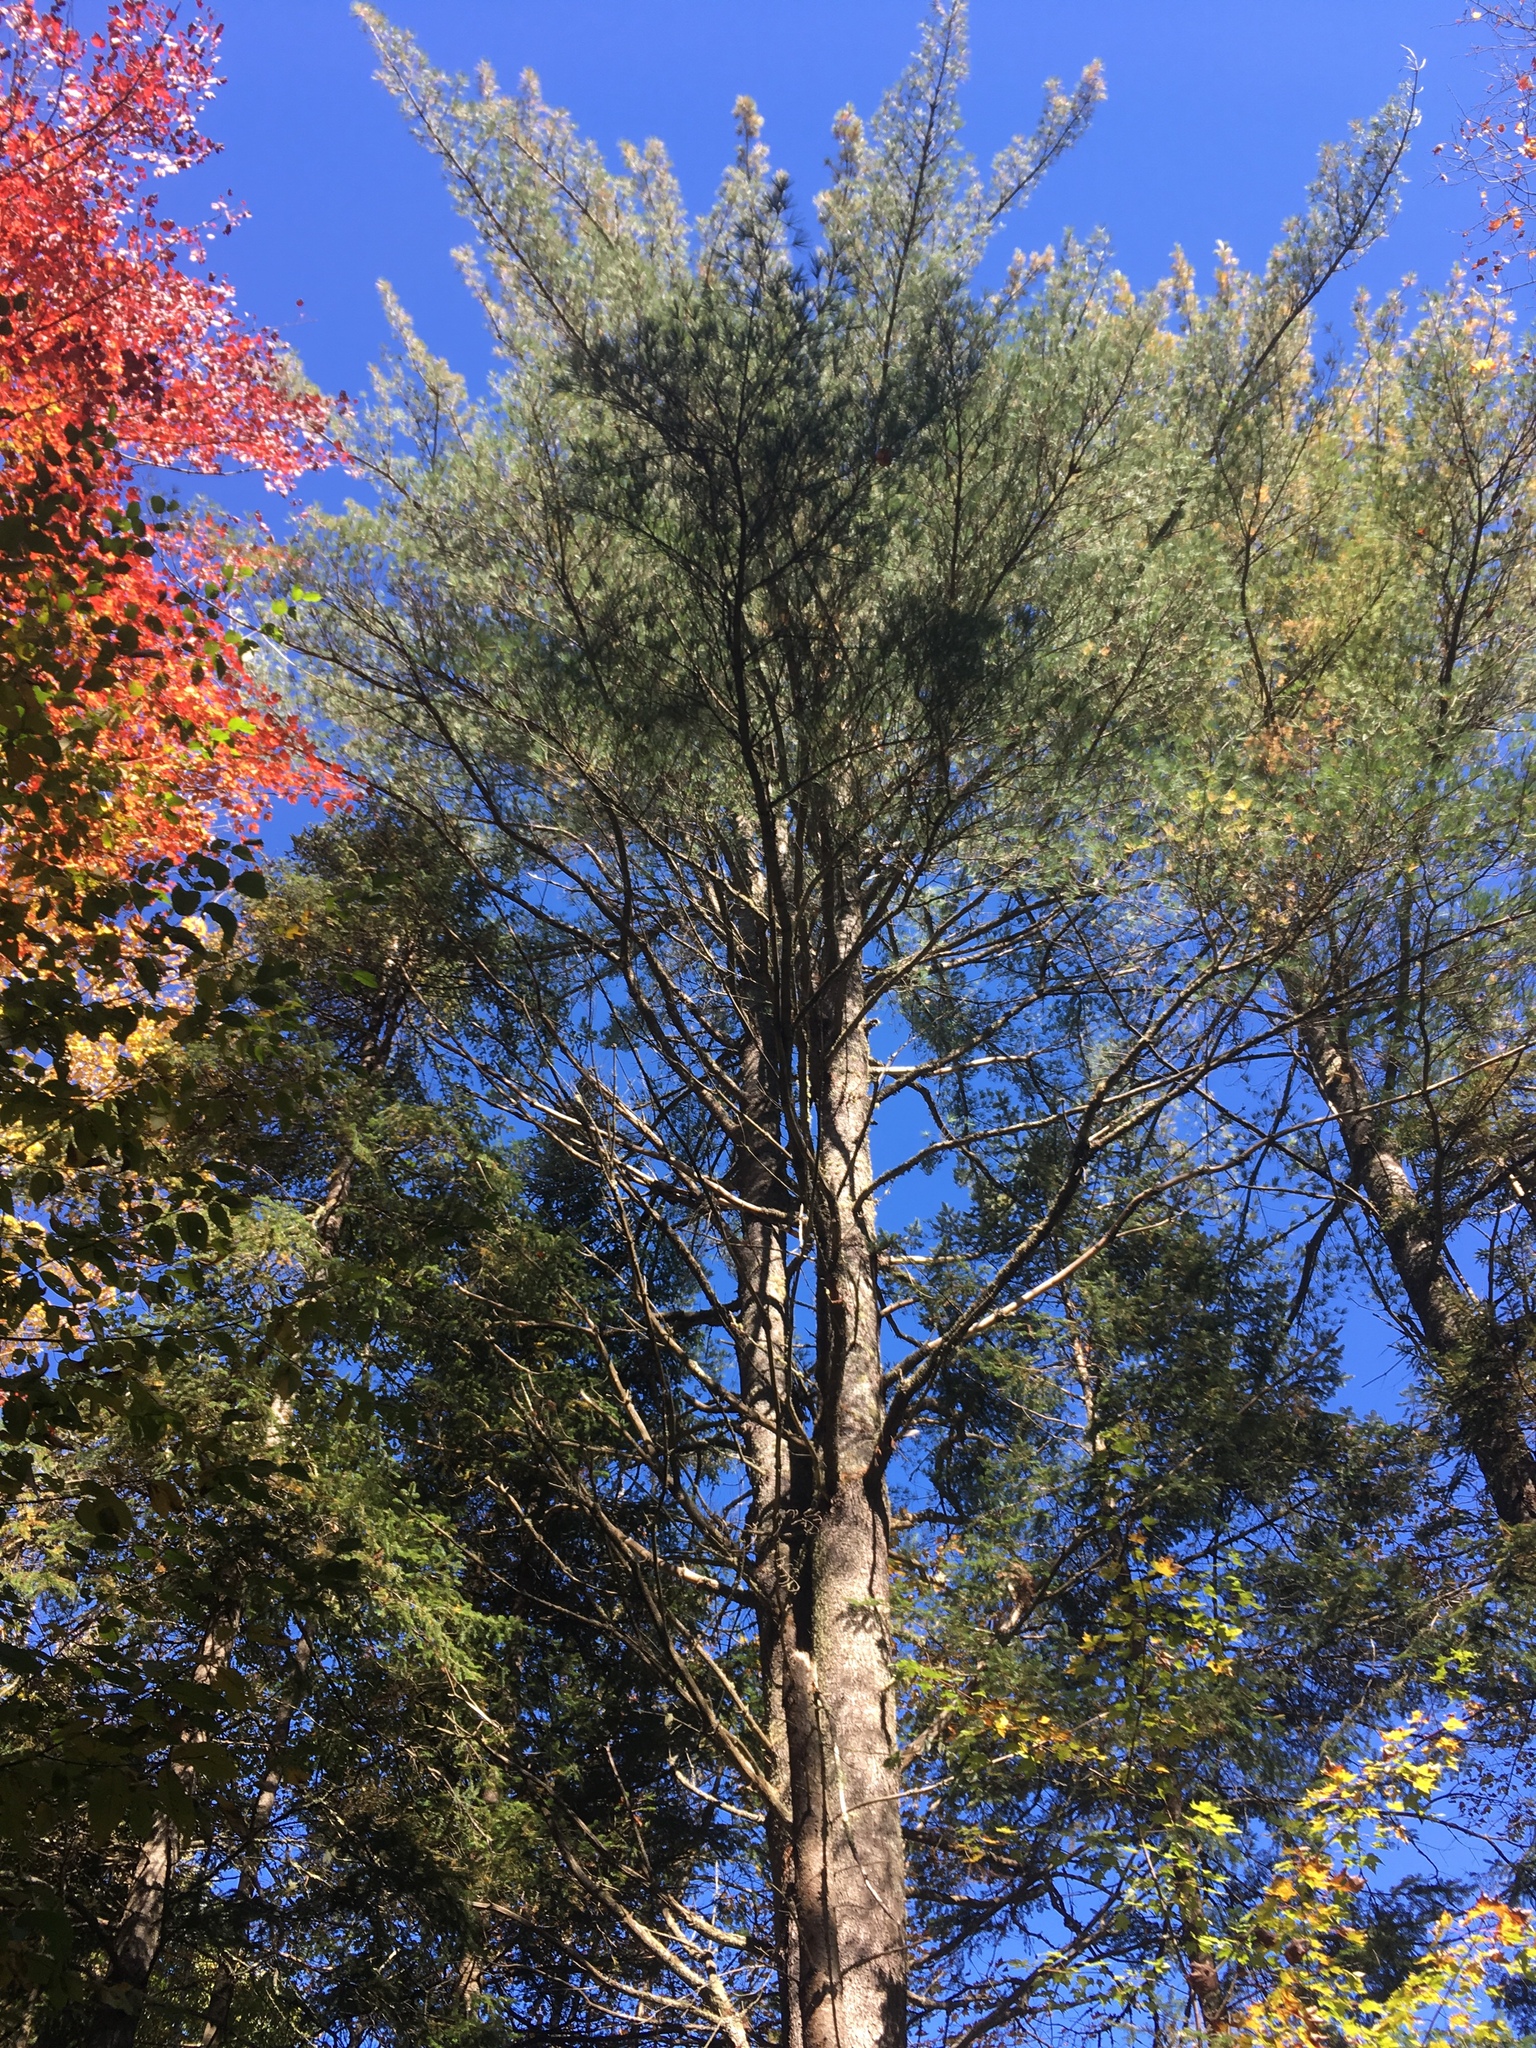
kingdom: Plantae
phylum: Tracheophyta
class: Pinopsida
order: Pinales
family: Pinaceae
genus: Pinus
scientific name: Pinus strobus
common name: Weymouth pine
